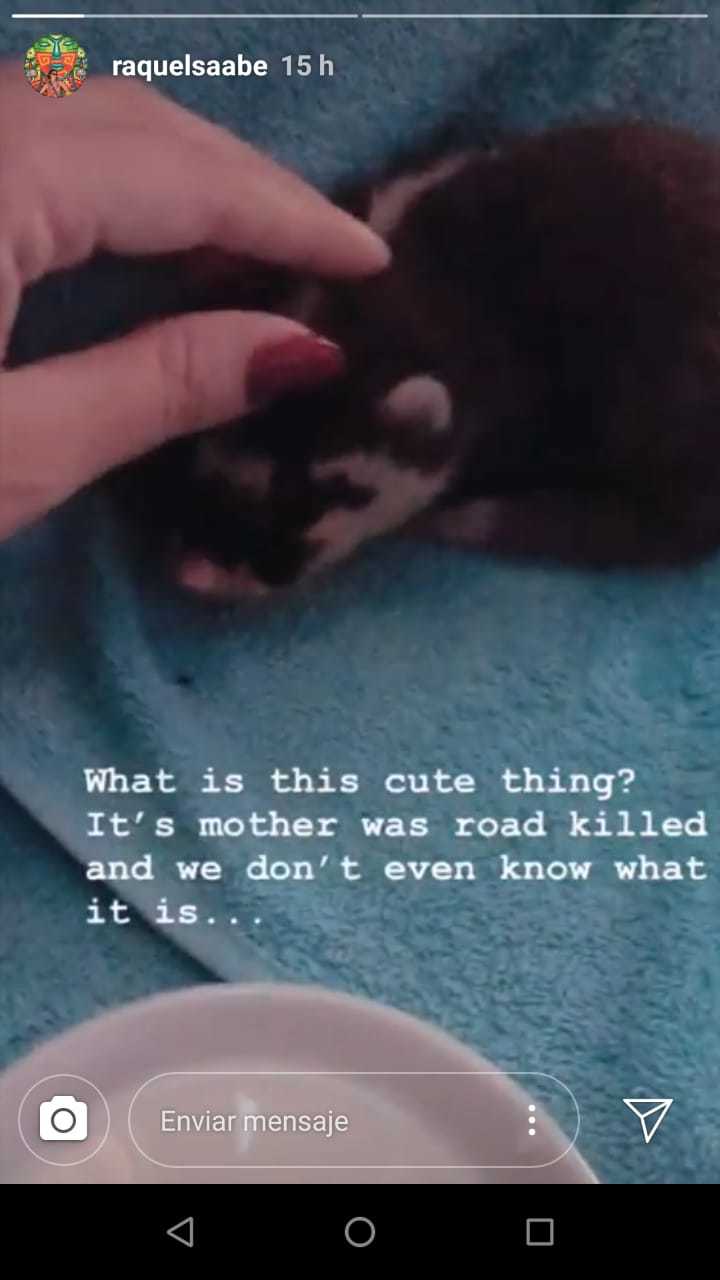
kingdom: Animalia
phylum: Chordata
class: Mammalia
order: Carnivora
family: Mustelidae
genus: Melogale
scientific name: Melogale orientalis
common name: Javan ferret-badger
